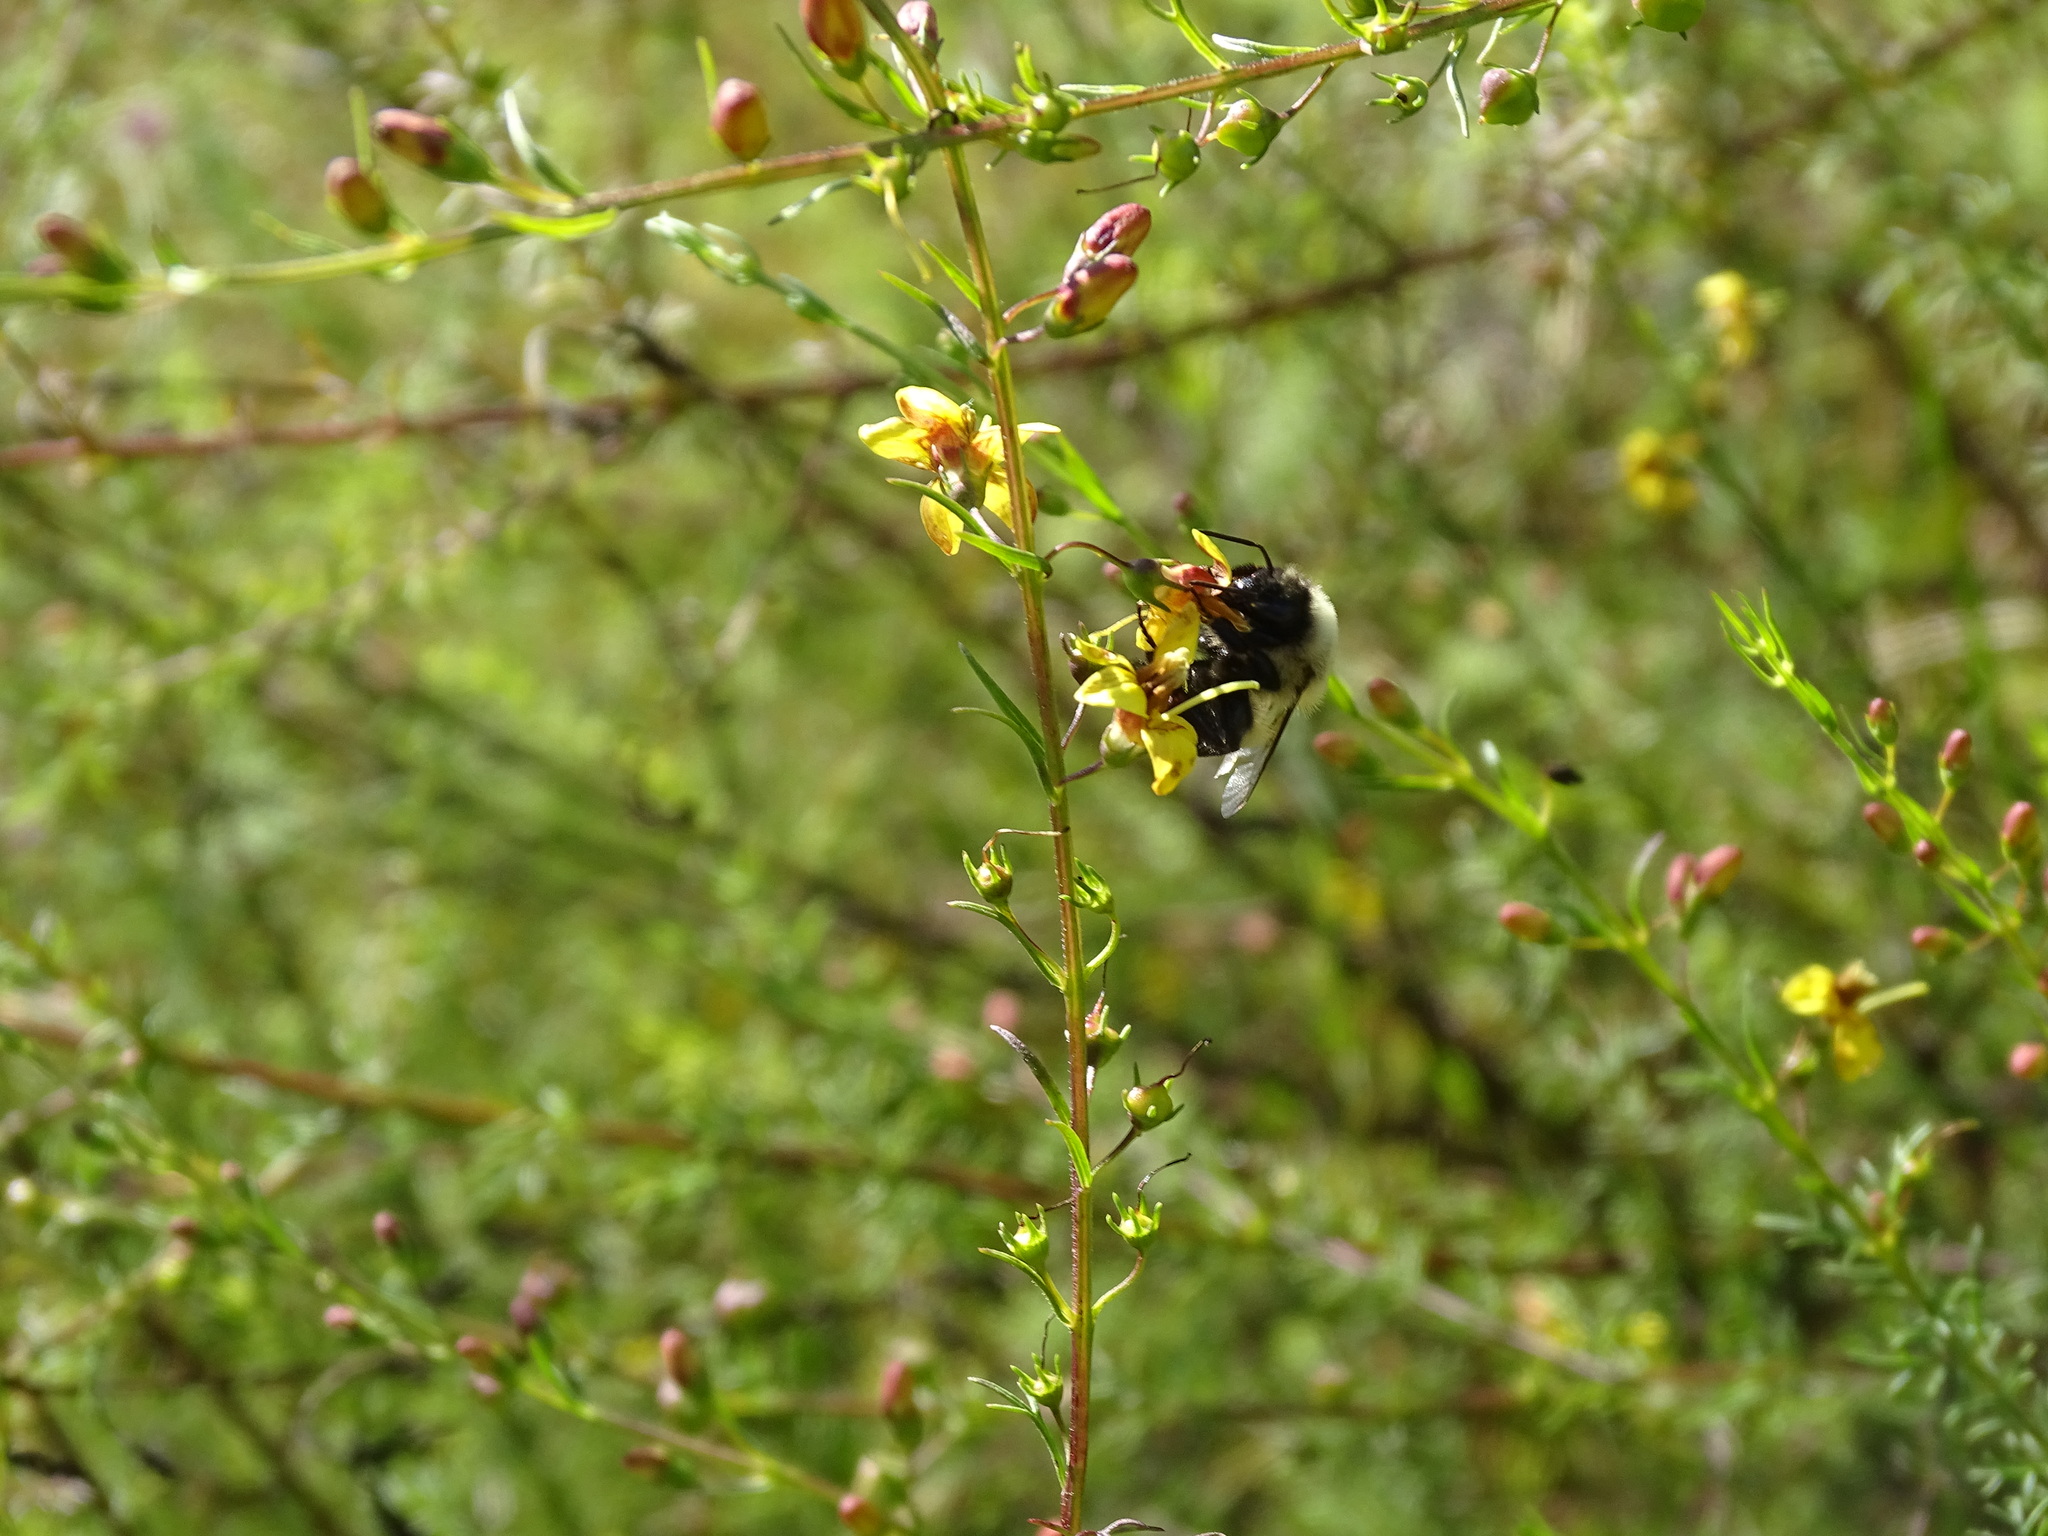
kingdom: Animalia
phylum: Arthropoda
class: Insecta
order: Hymenoptera
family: Apidae
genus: Bombus
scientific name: Bombus impatiens
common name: Common eastern bumble bee
